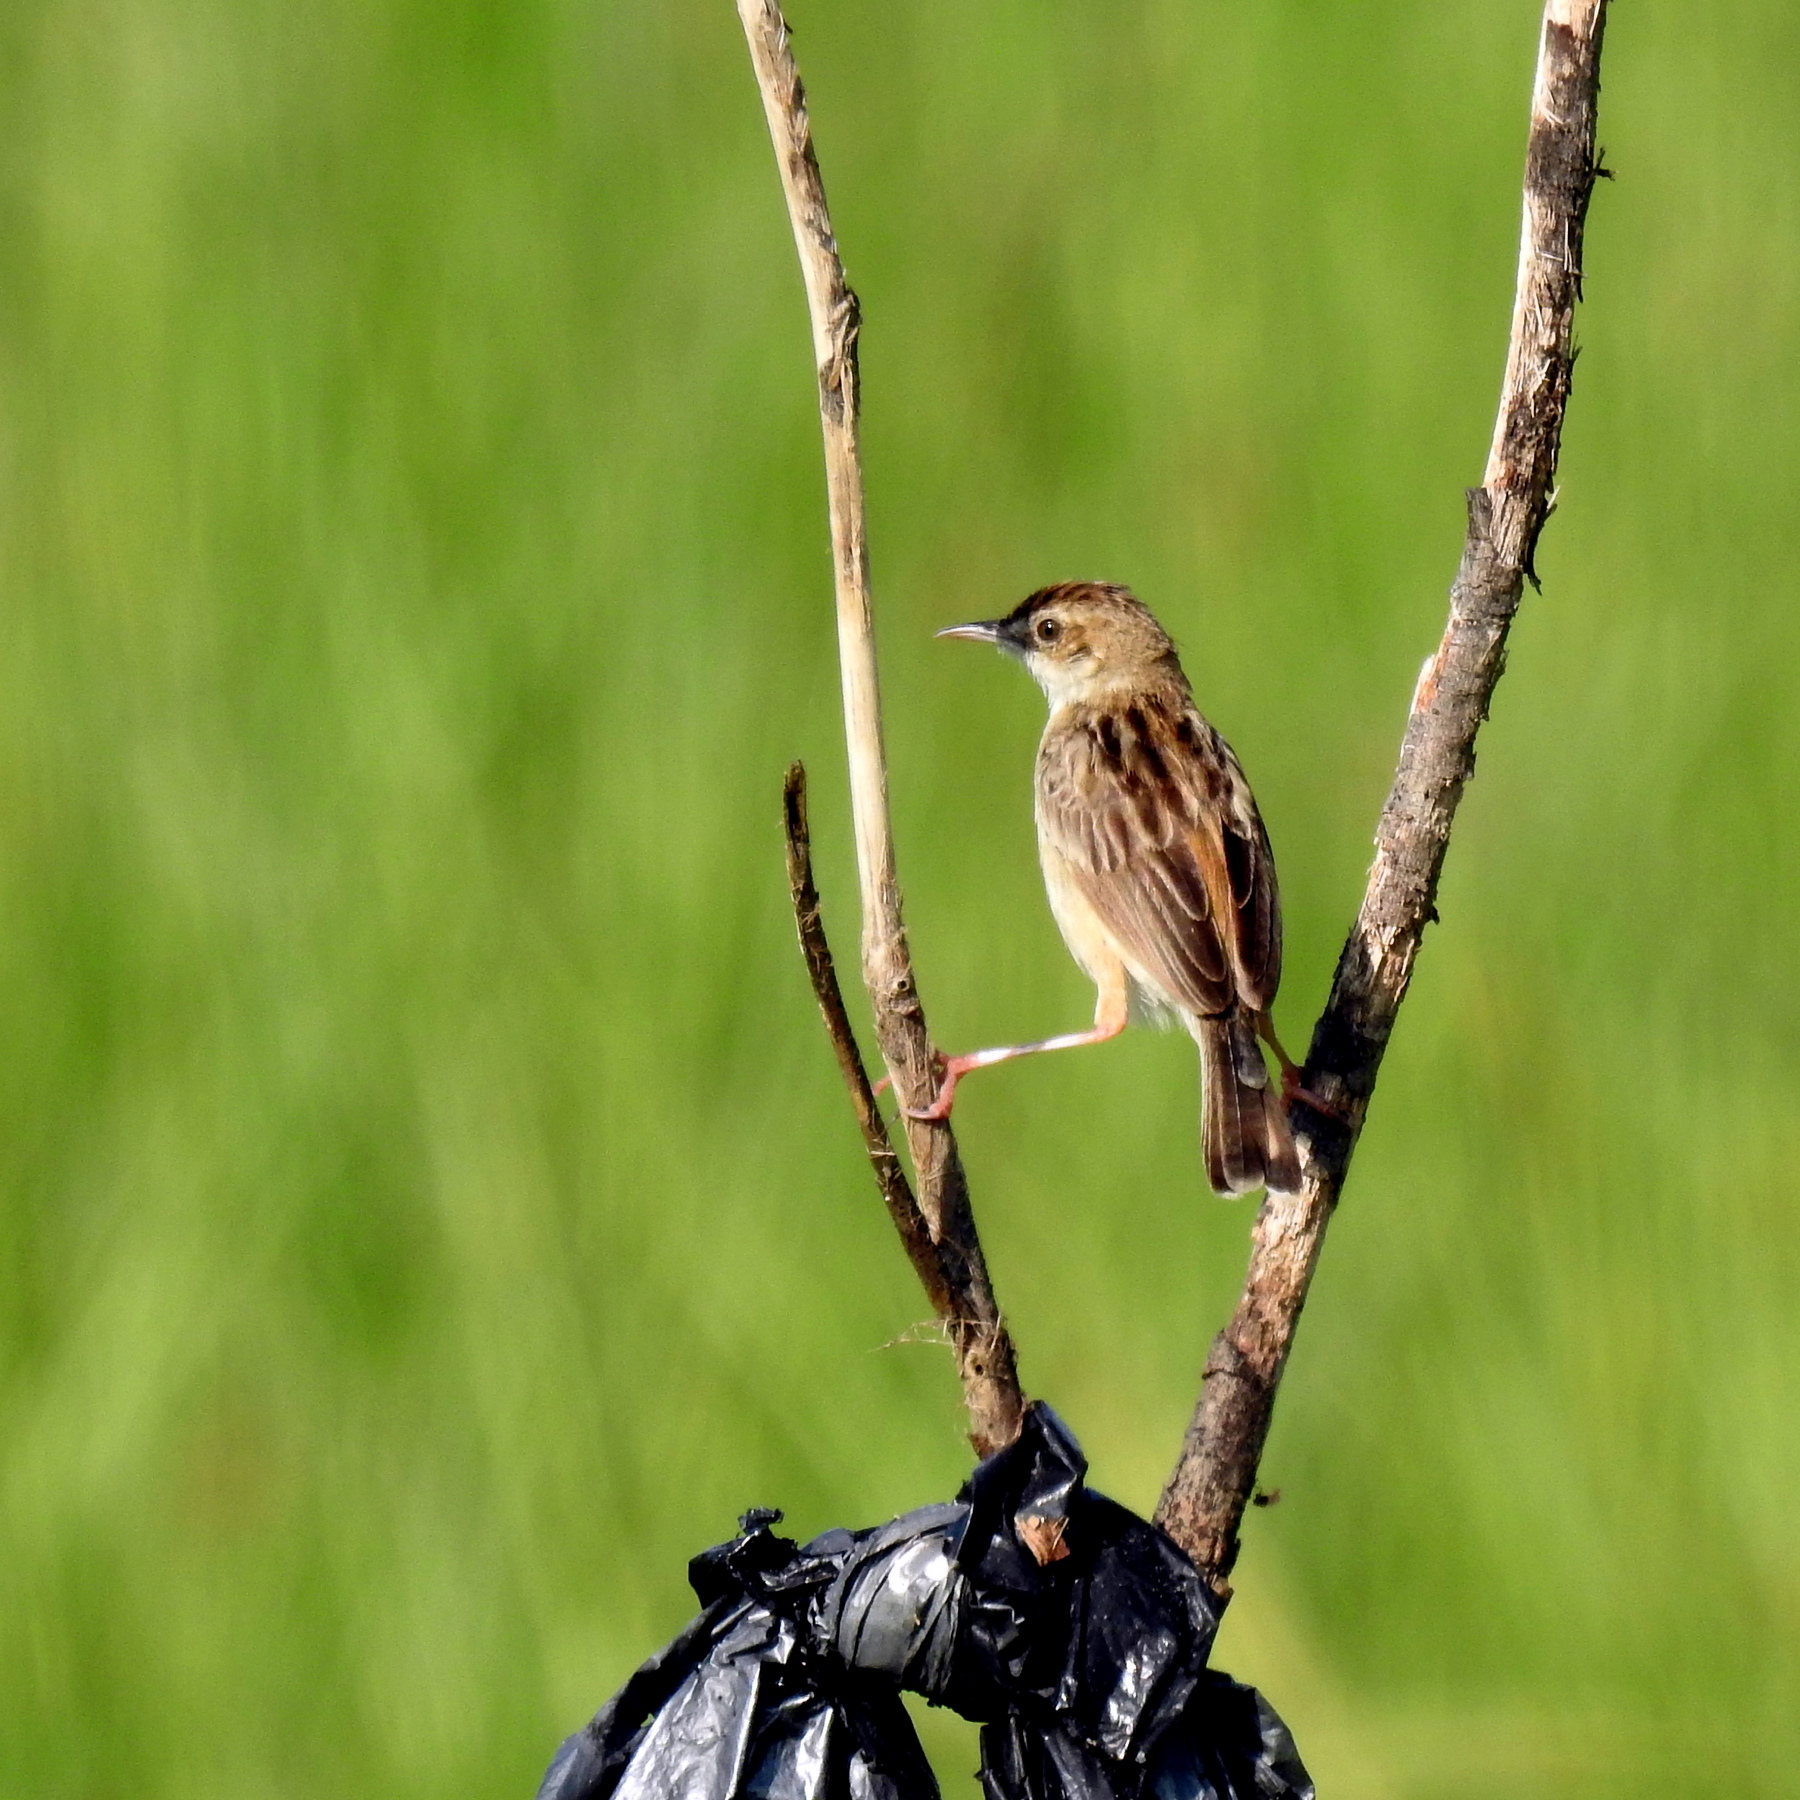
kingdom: Animalia
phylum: Chordata
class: Aves
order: Passeriformes
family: Cisticolidae
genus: Cisticola
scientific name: Cisticola juncidis
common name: Zitting cisticola
